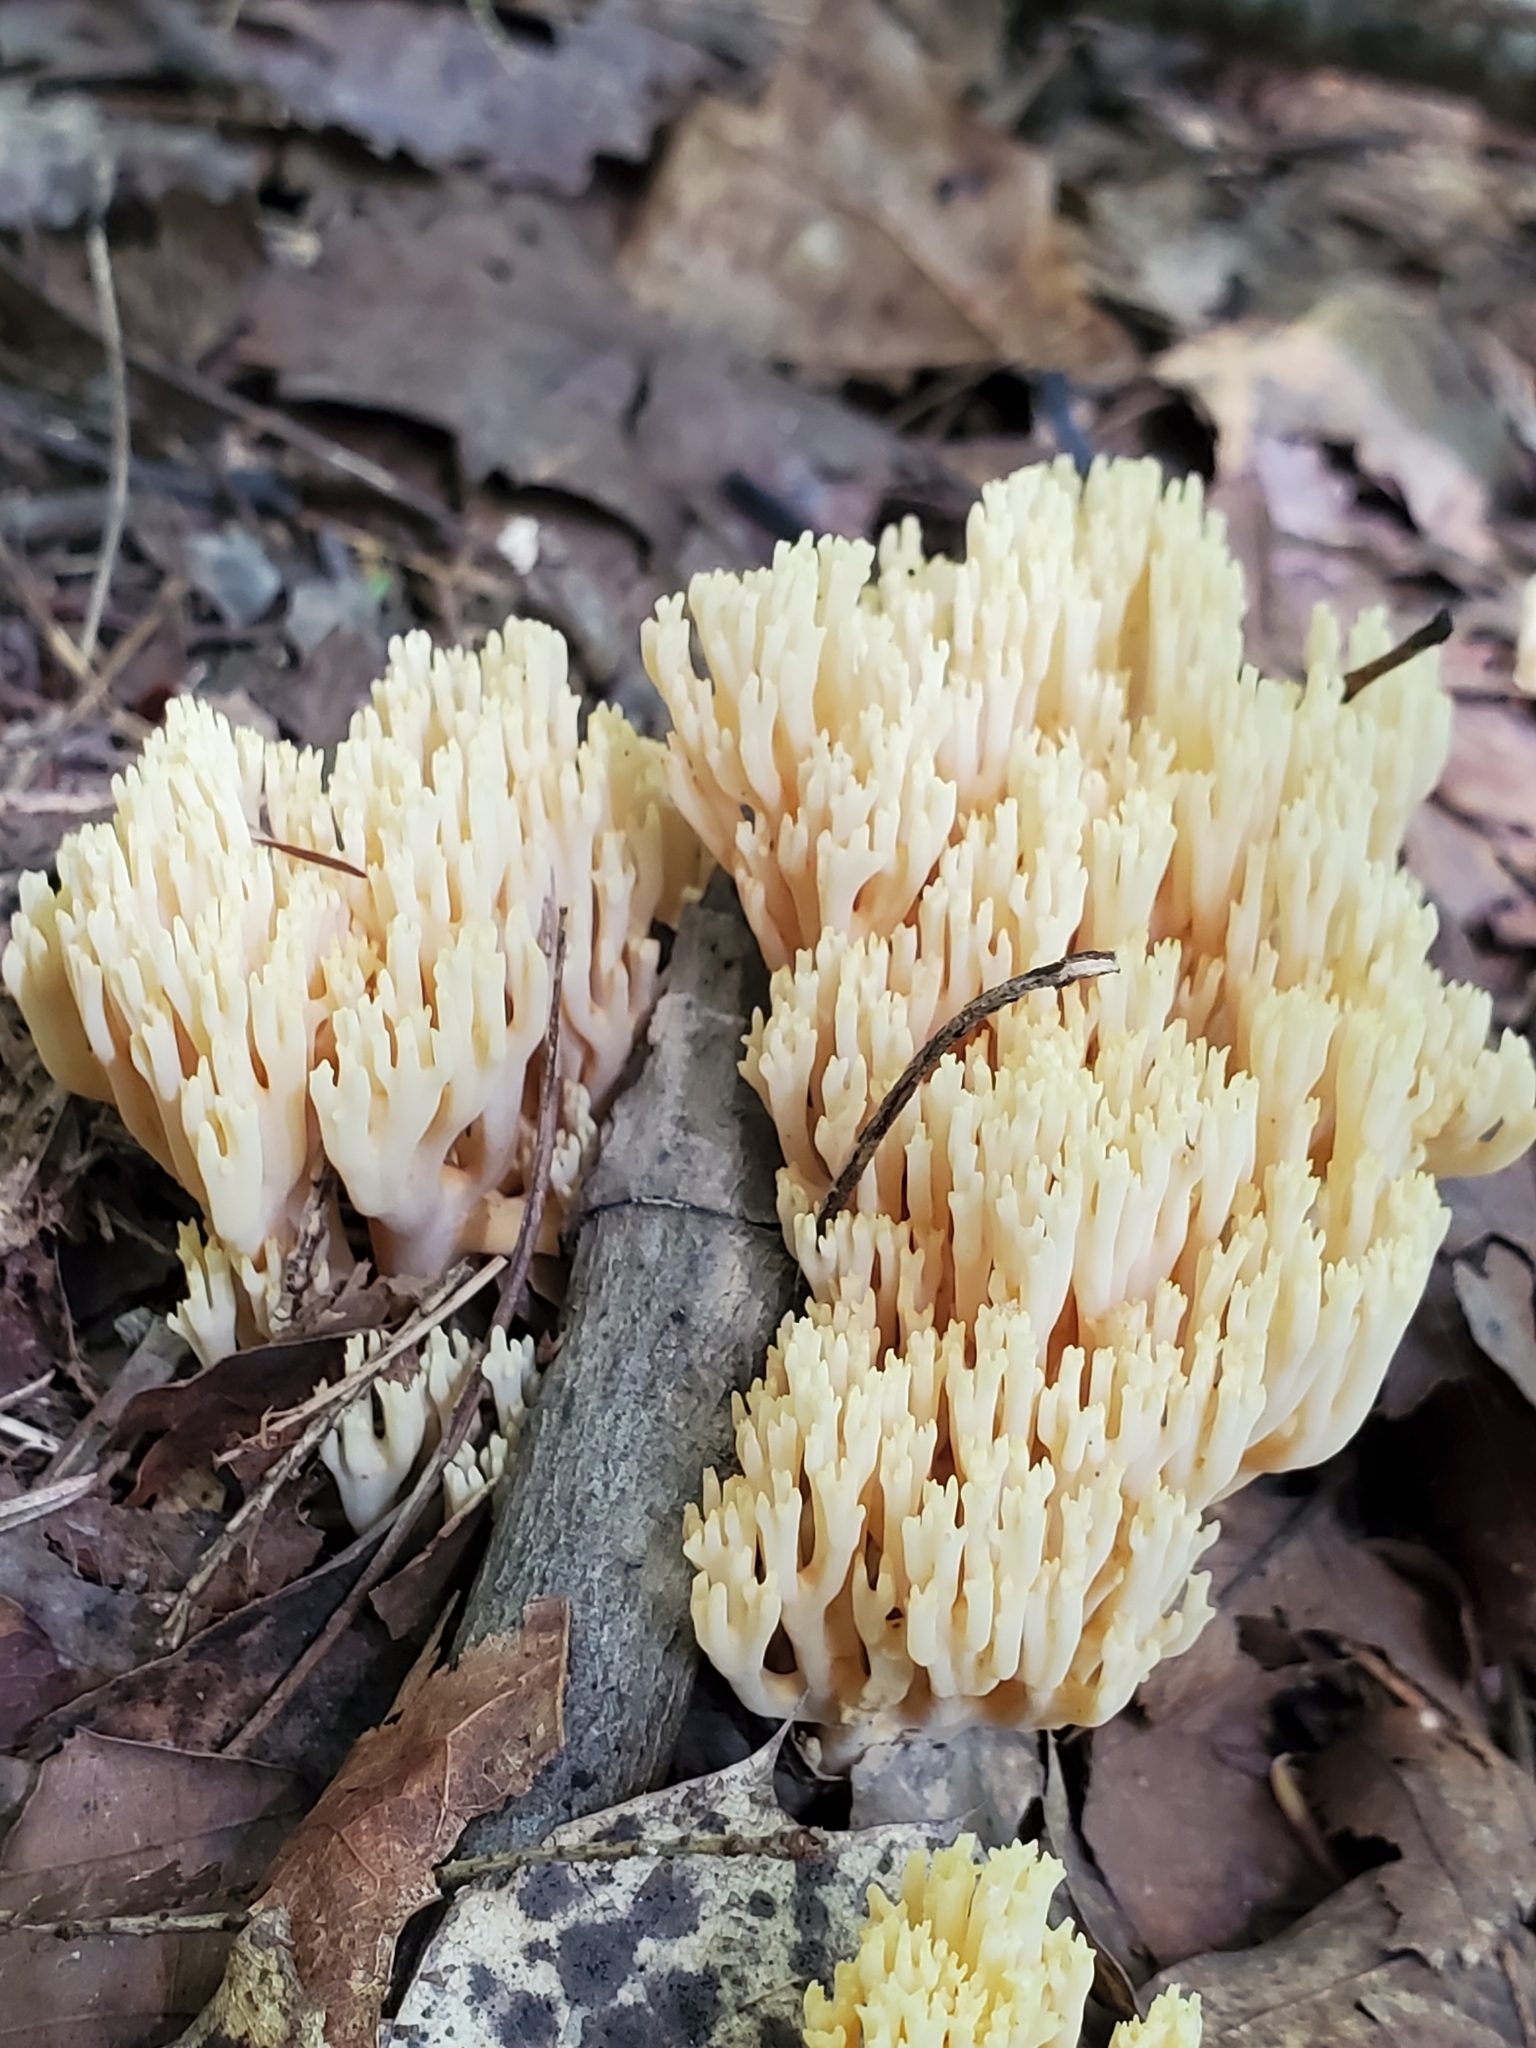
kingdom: Fungi
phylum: Basidiomycota
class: Agaricomycetes
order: Russulales
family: Auriscalpiaceae
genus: Artomyces
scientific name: Artomyces pyxidatus
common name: Crown-tipped coral fungus
